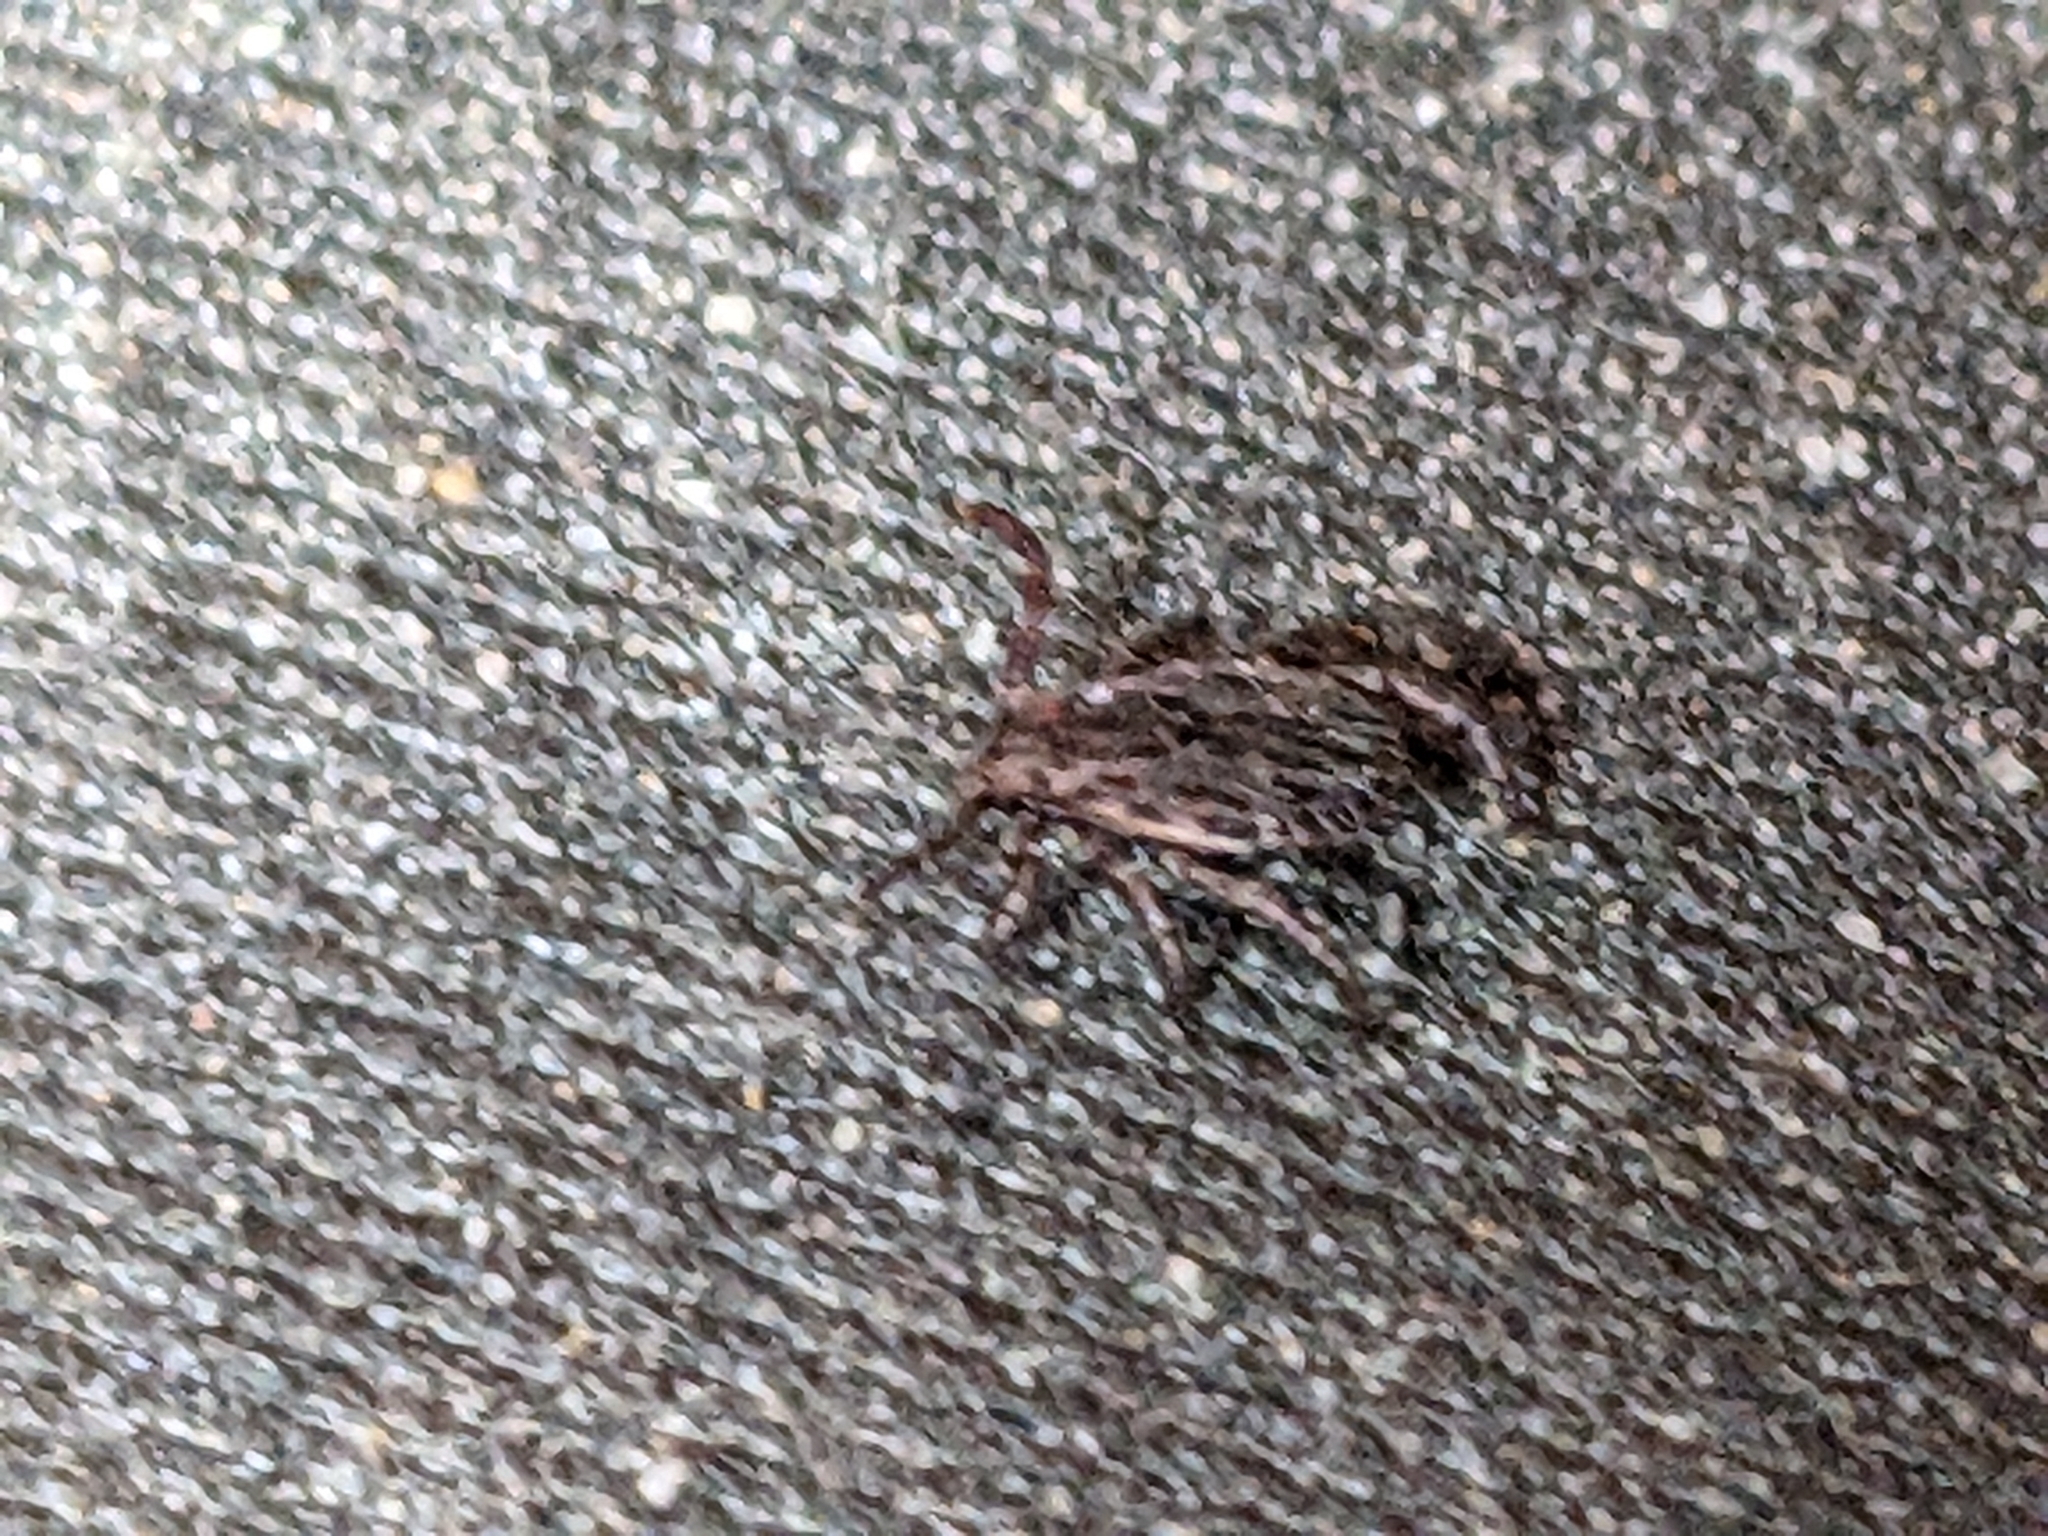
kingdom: Animalia
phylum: Arthropoda
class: Arachnida
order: Ixodida
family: Ixodidae
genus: Dermacentor
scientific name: Dermacentor occidentalis
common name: Net tick
